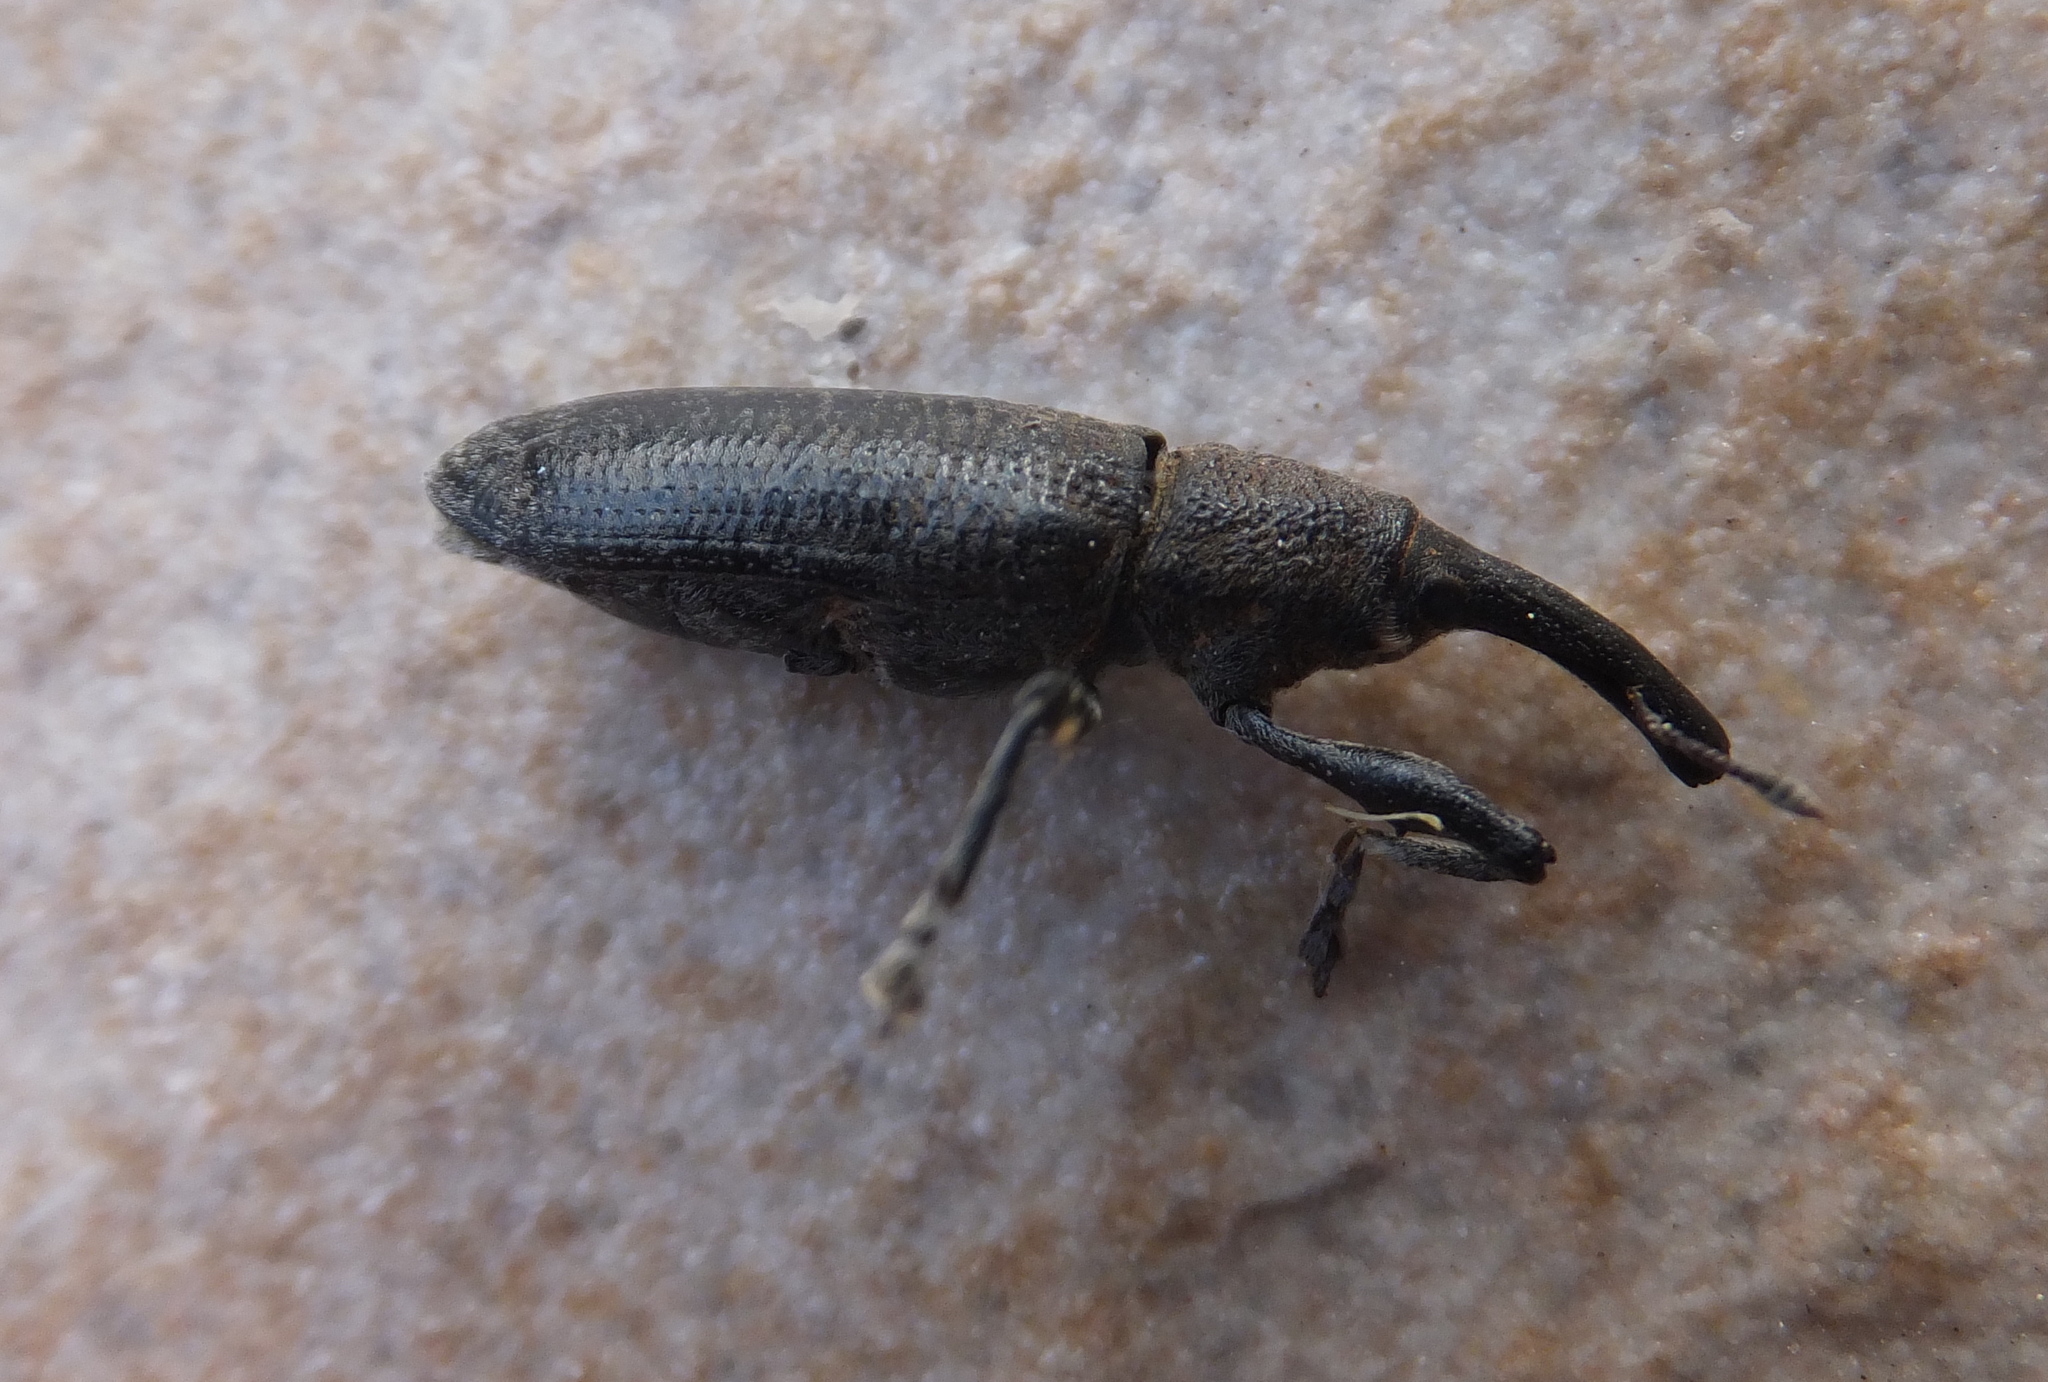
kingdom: Animalia
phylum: Arthropoda
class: Insecta
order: Coleoptera
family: Curculionidae
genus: Lixus
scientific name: Lixus pulverulentus
